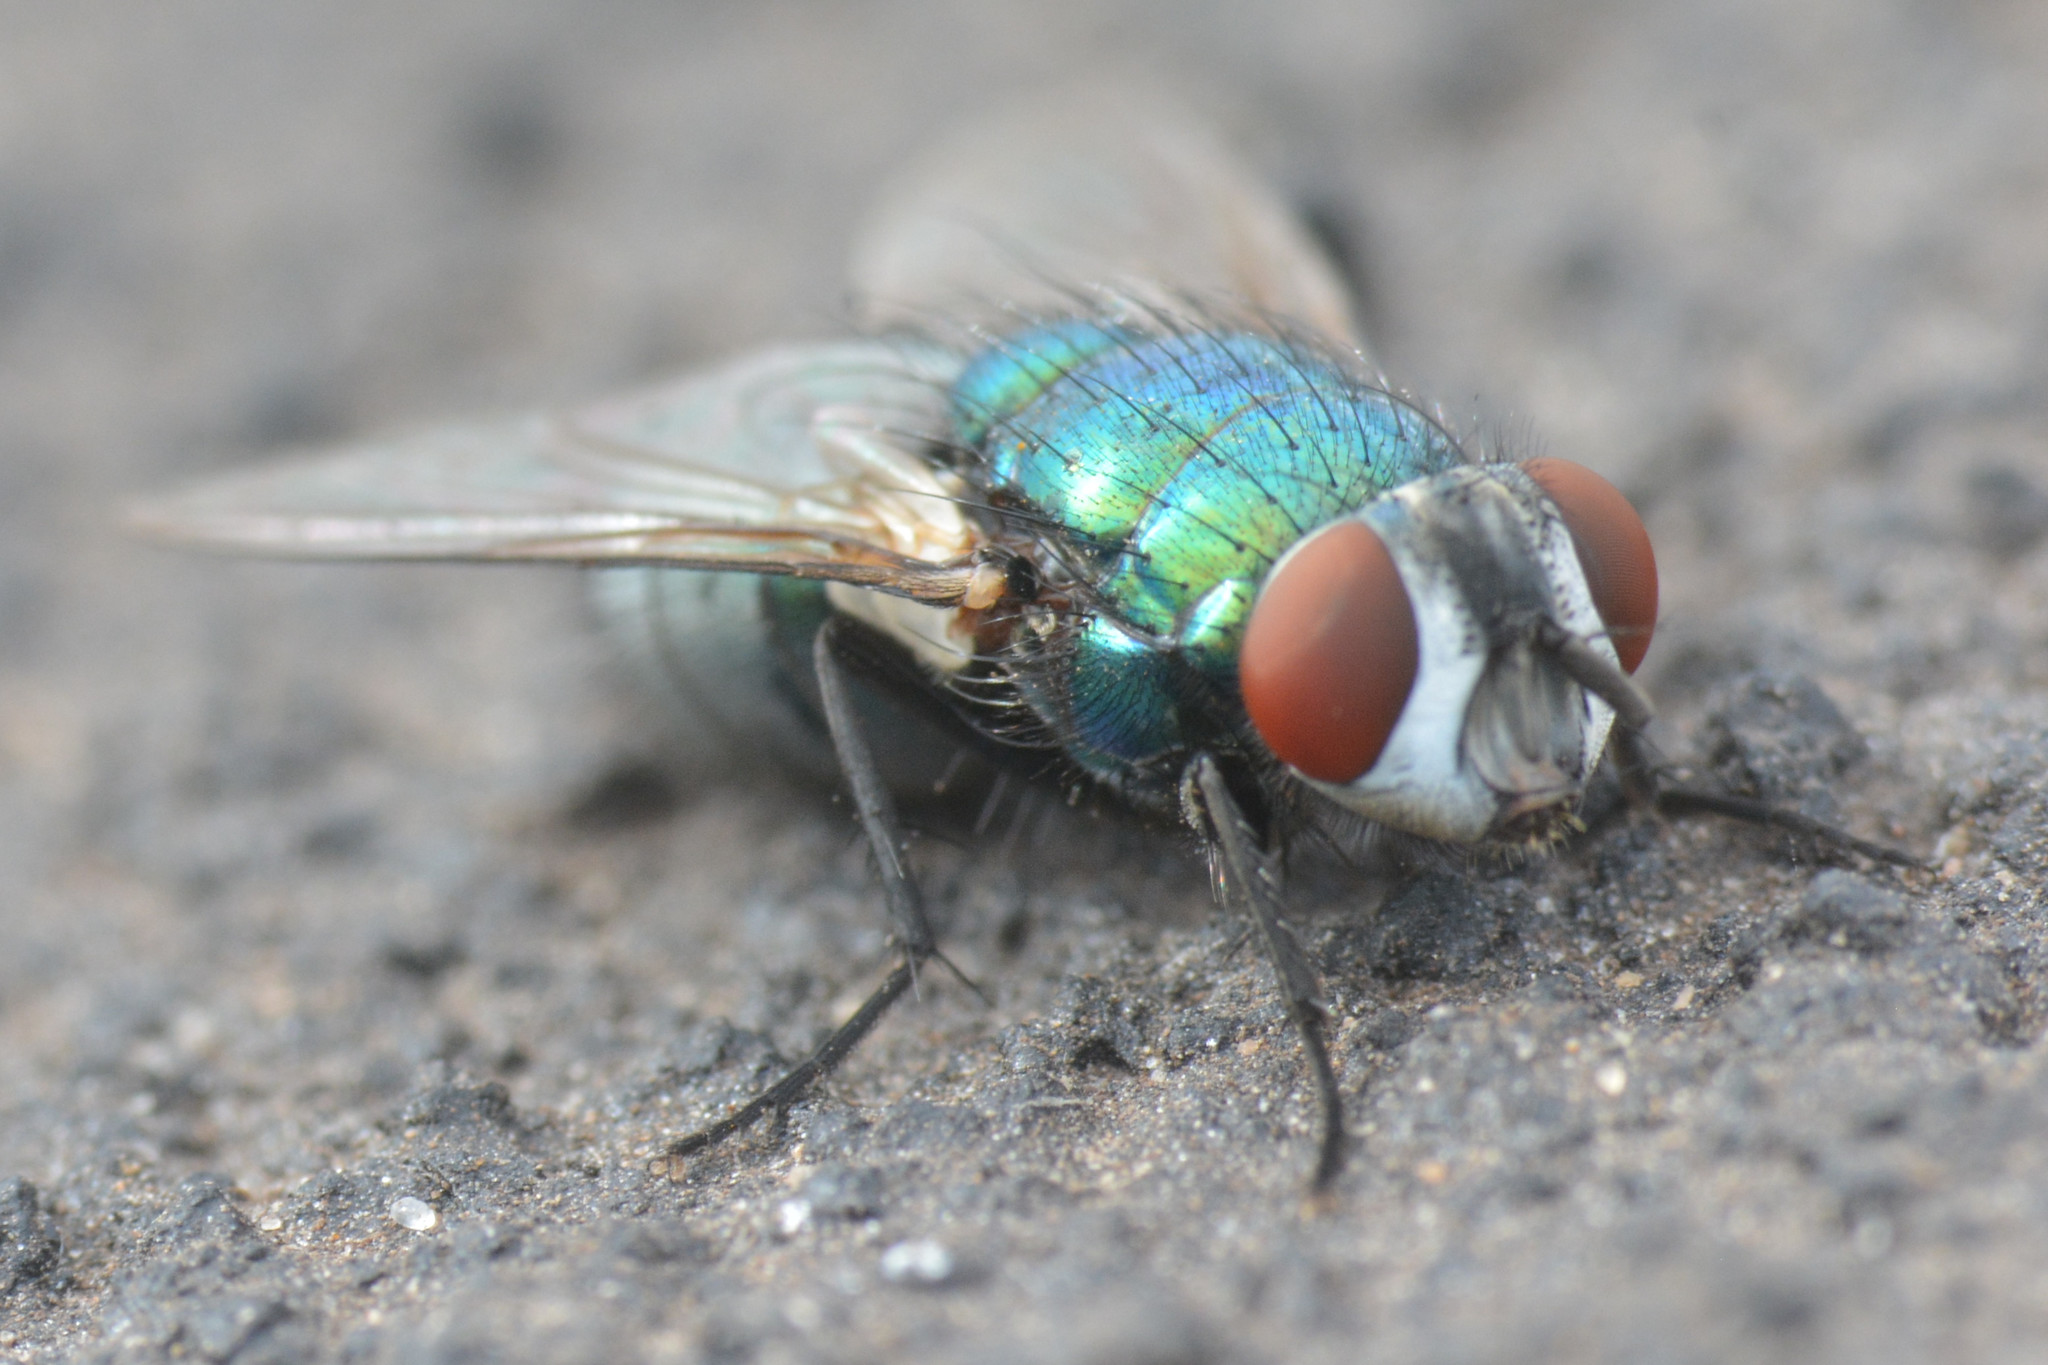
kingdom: Animalia
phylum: Arthropoda
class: Insecta
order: Diptera
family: Calliphoridae
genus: Lucilia
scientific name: Lucilia sericata
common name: Blow fly
